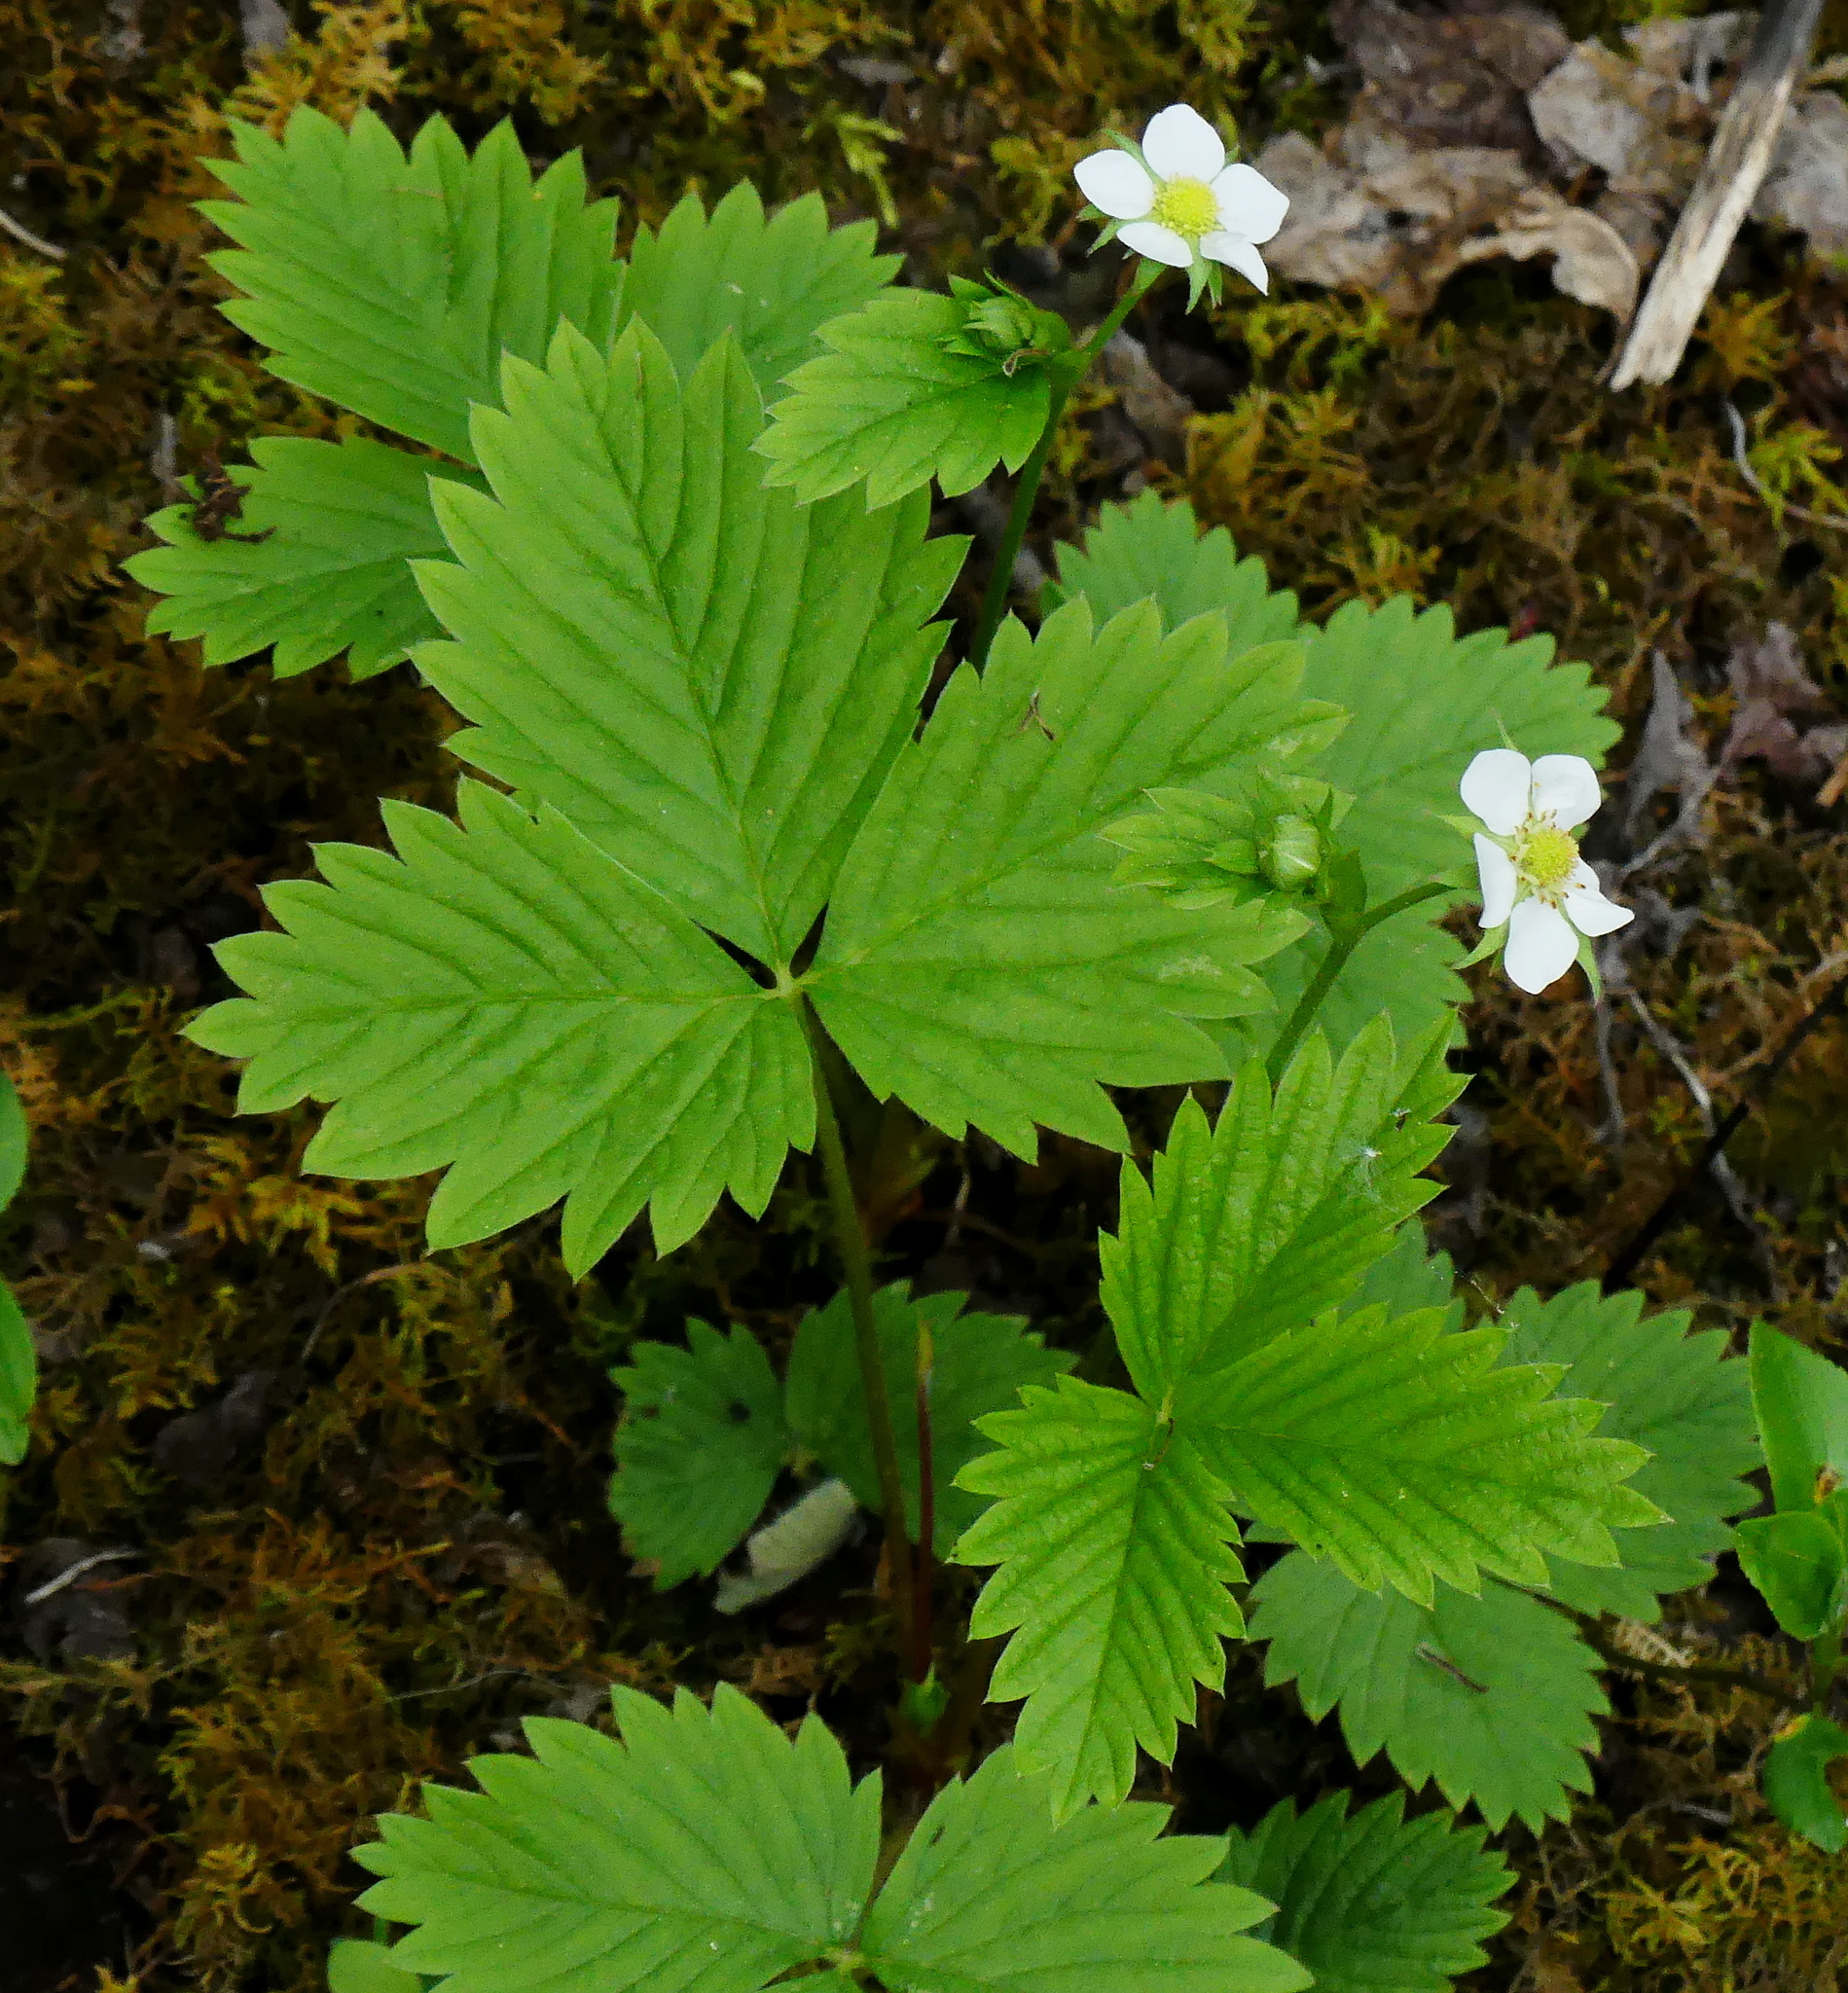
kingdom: Plantae
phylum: Tracheophyta
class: Magnoliopsida
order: Rosales
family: Rosaceae
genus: Fragaria
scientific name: Fragaria vesca
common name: Wild strawberry
